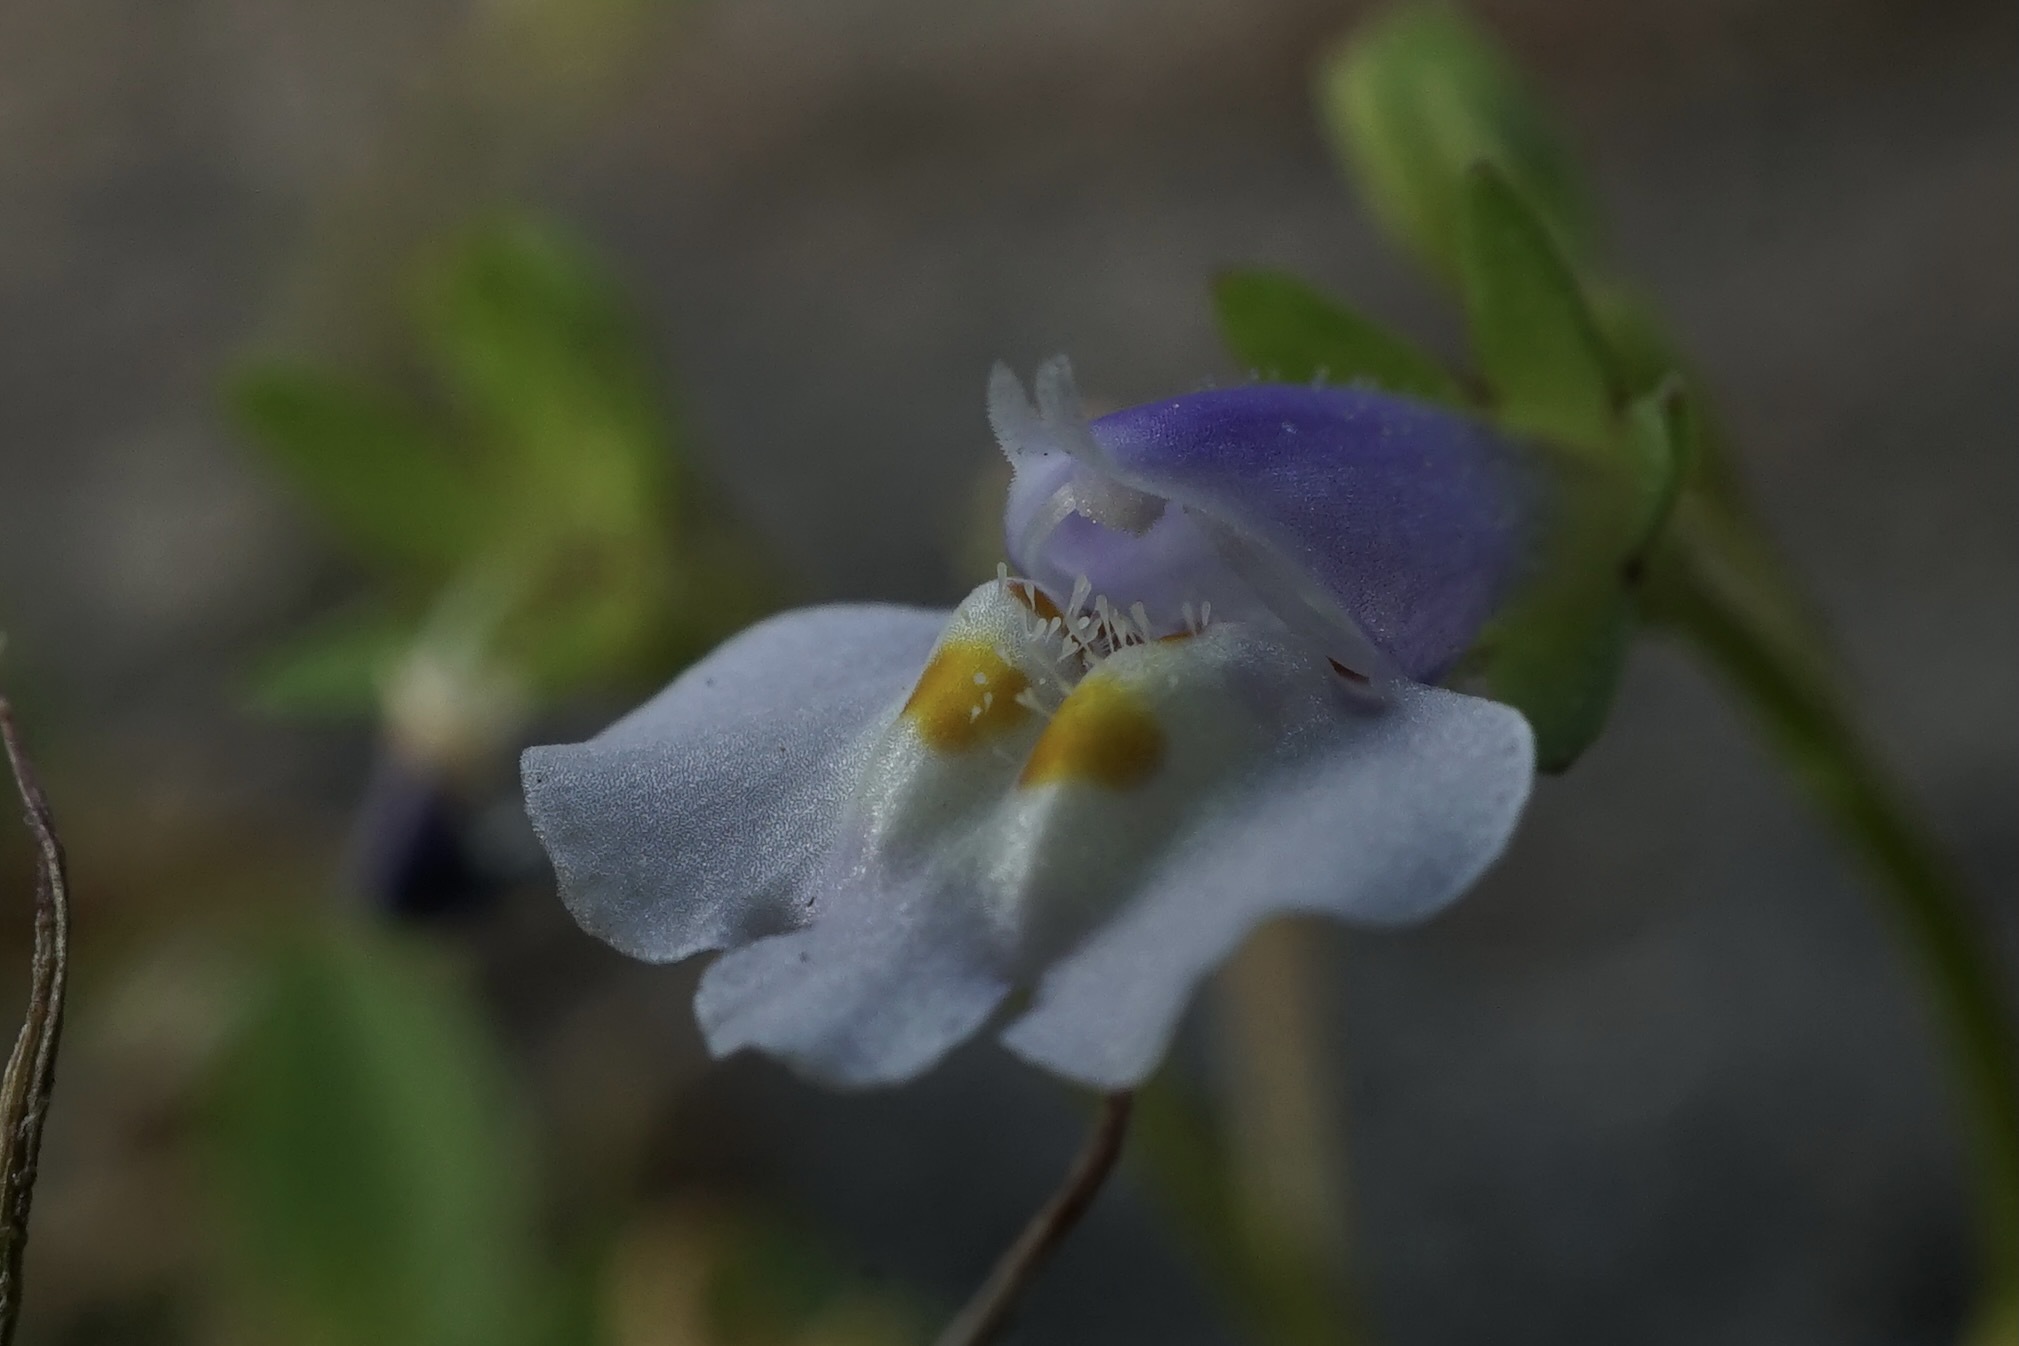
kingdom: Plantae
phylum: Tracheophyta
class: Magnoliopsida
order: Lamiales
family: Mazaceae
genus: Mazus
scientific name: Mazus pumilus
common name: Japanese mazus
